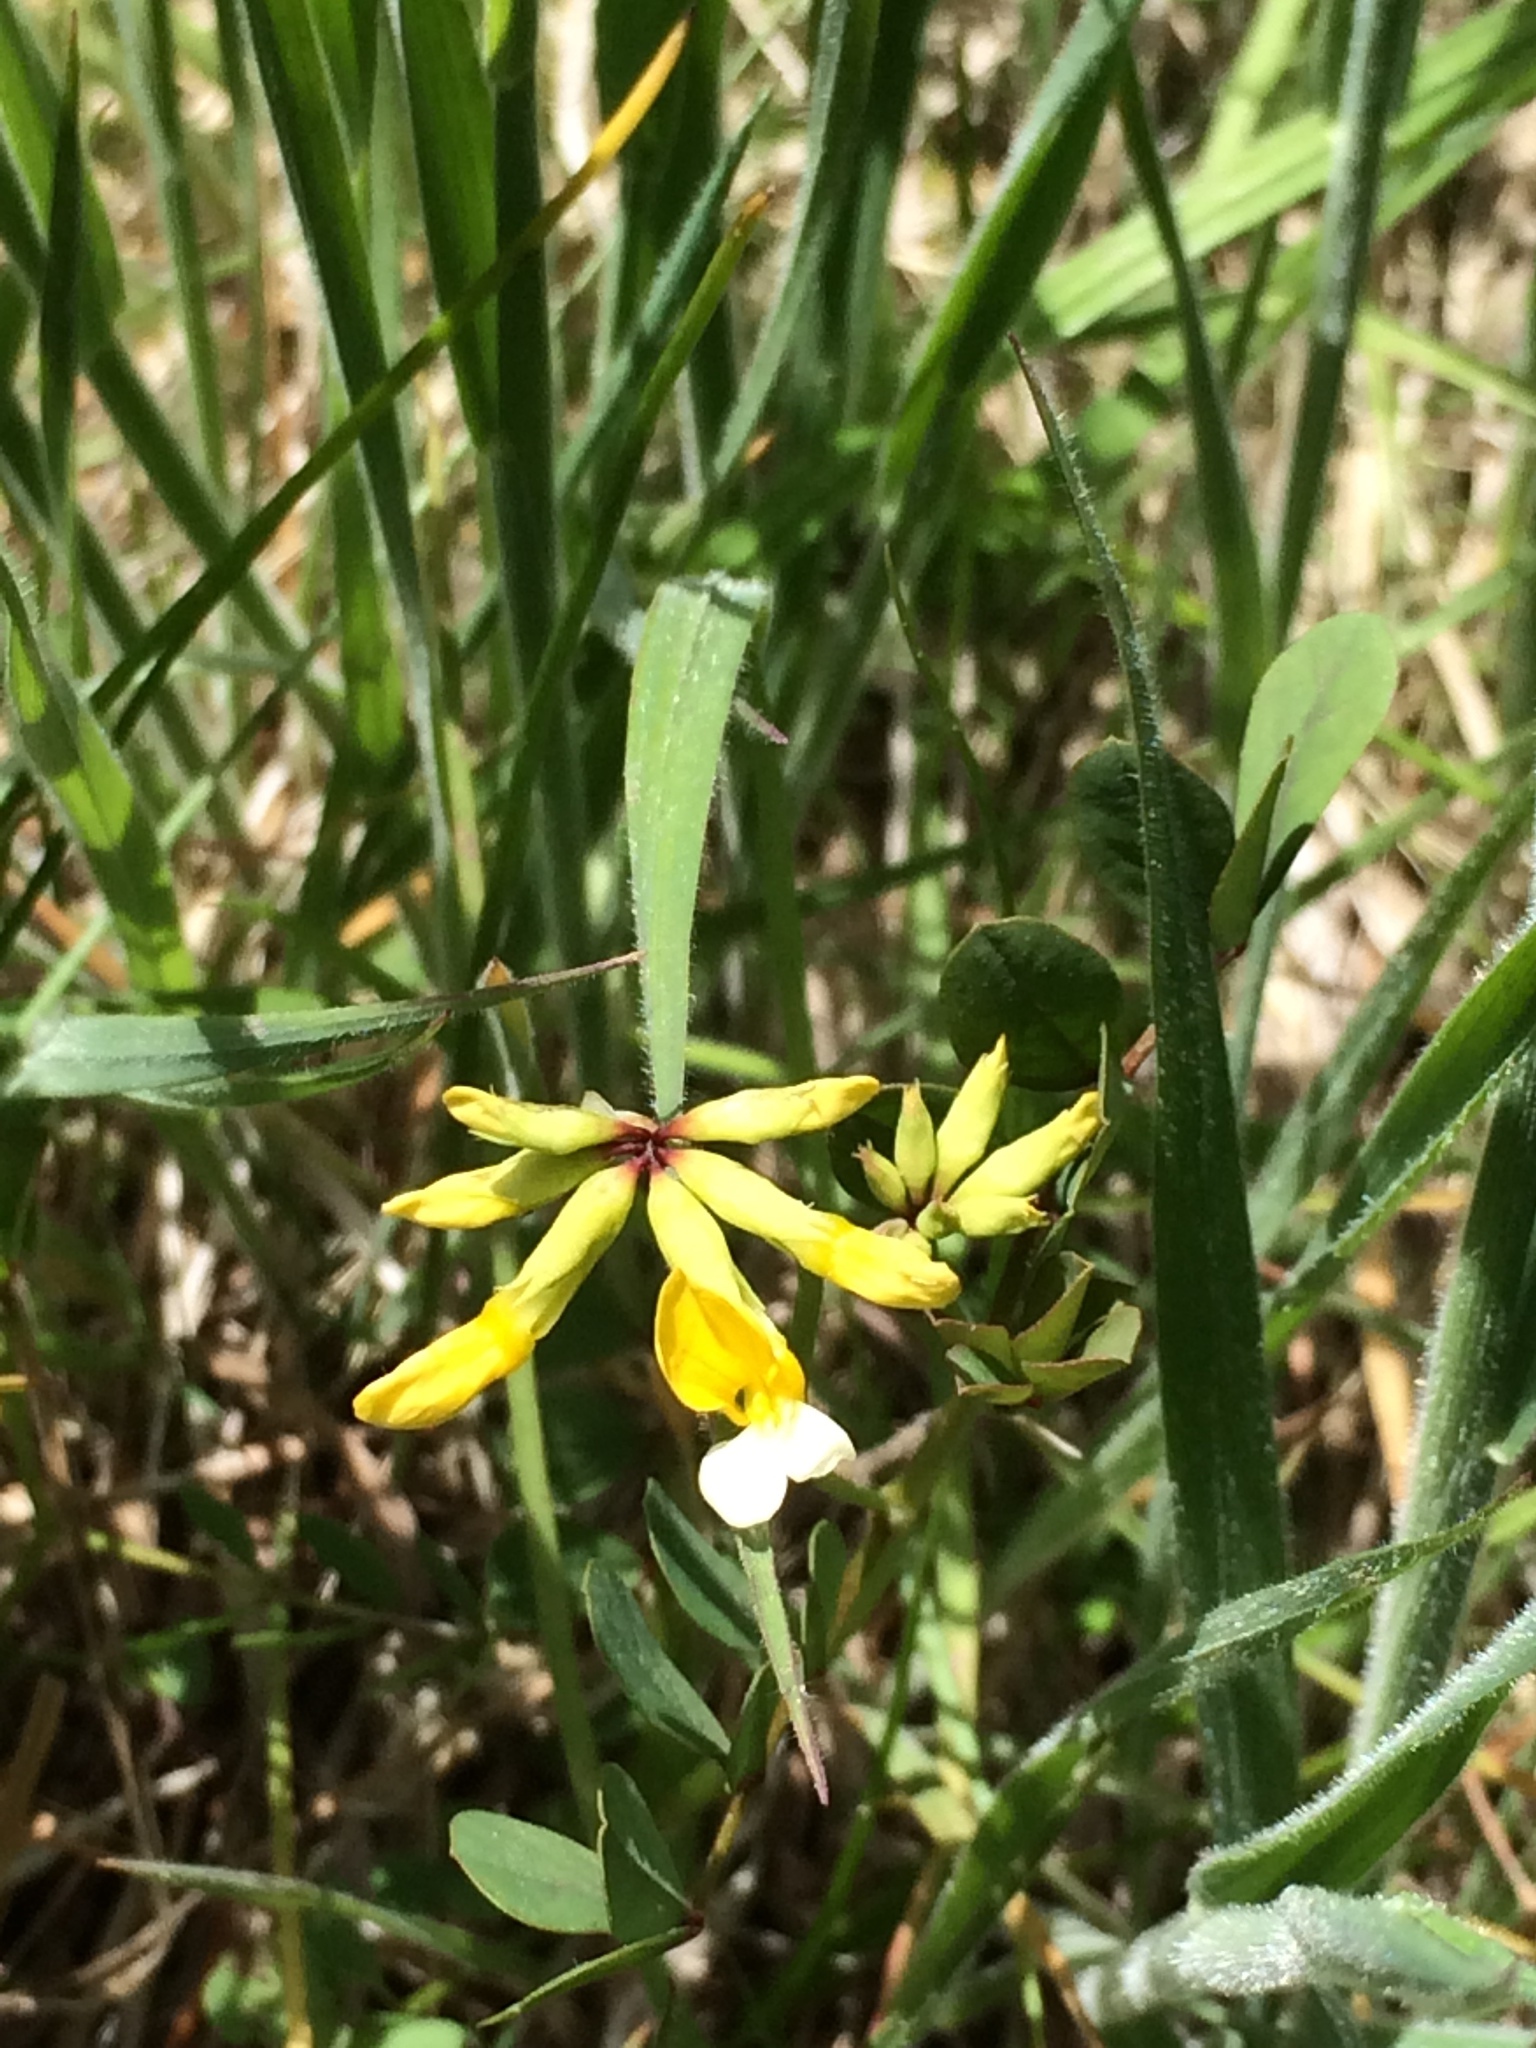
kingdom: Plantae
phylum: Tracheophyta
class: Magnoliopsida
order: Fabales
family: Fabaceae
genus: Hosackia
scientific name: Hosackia pinnata
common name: Bog bird's-foot trefoil
